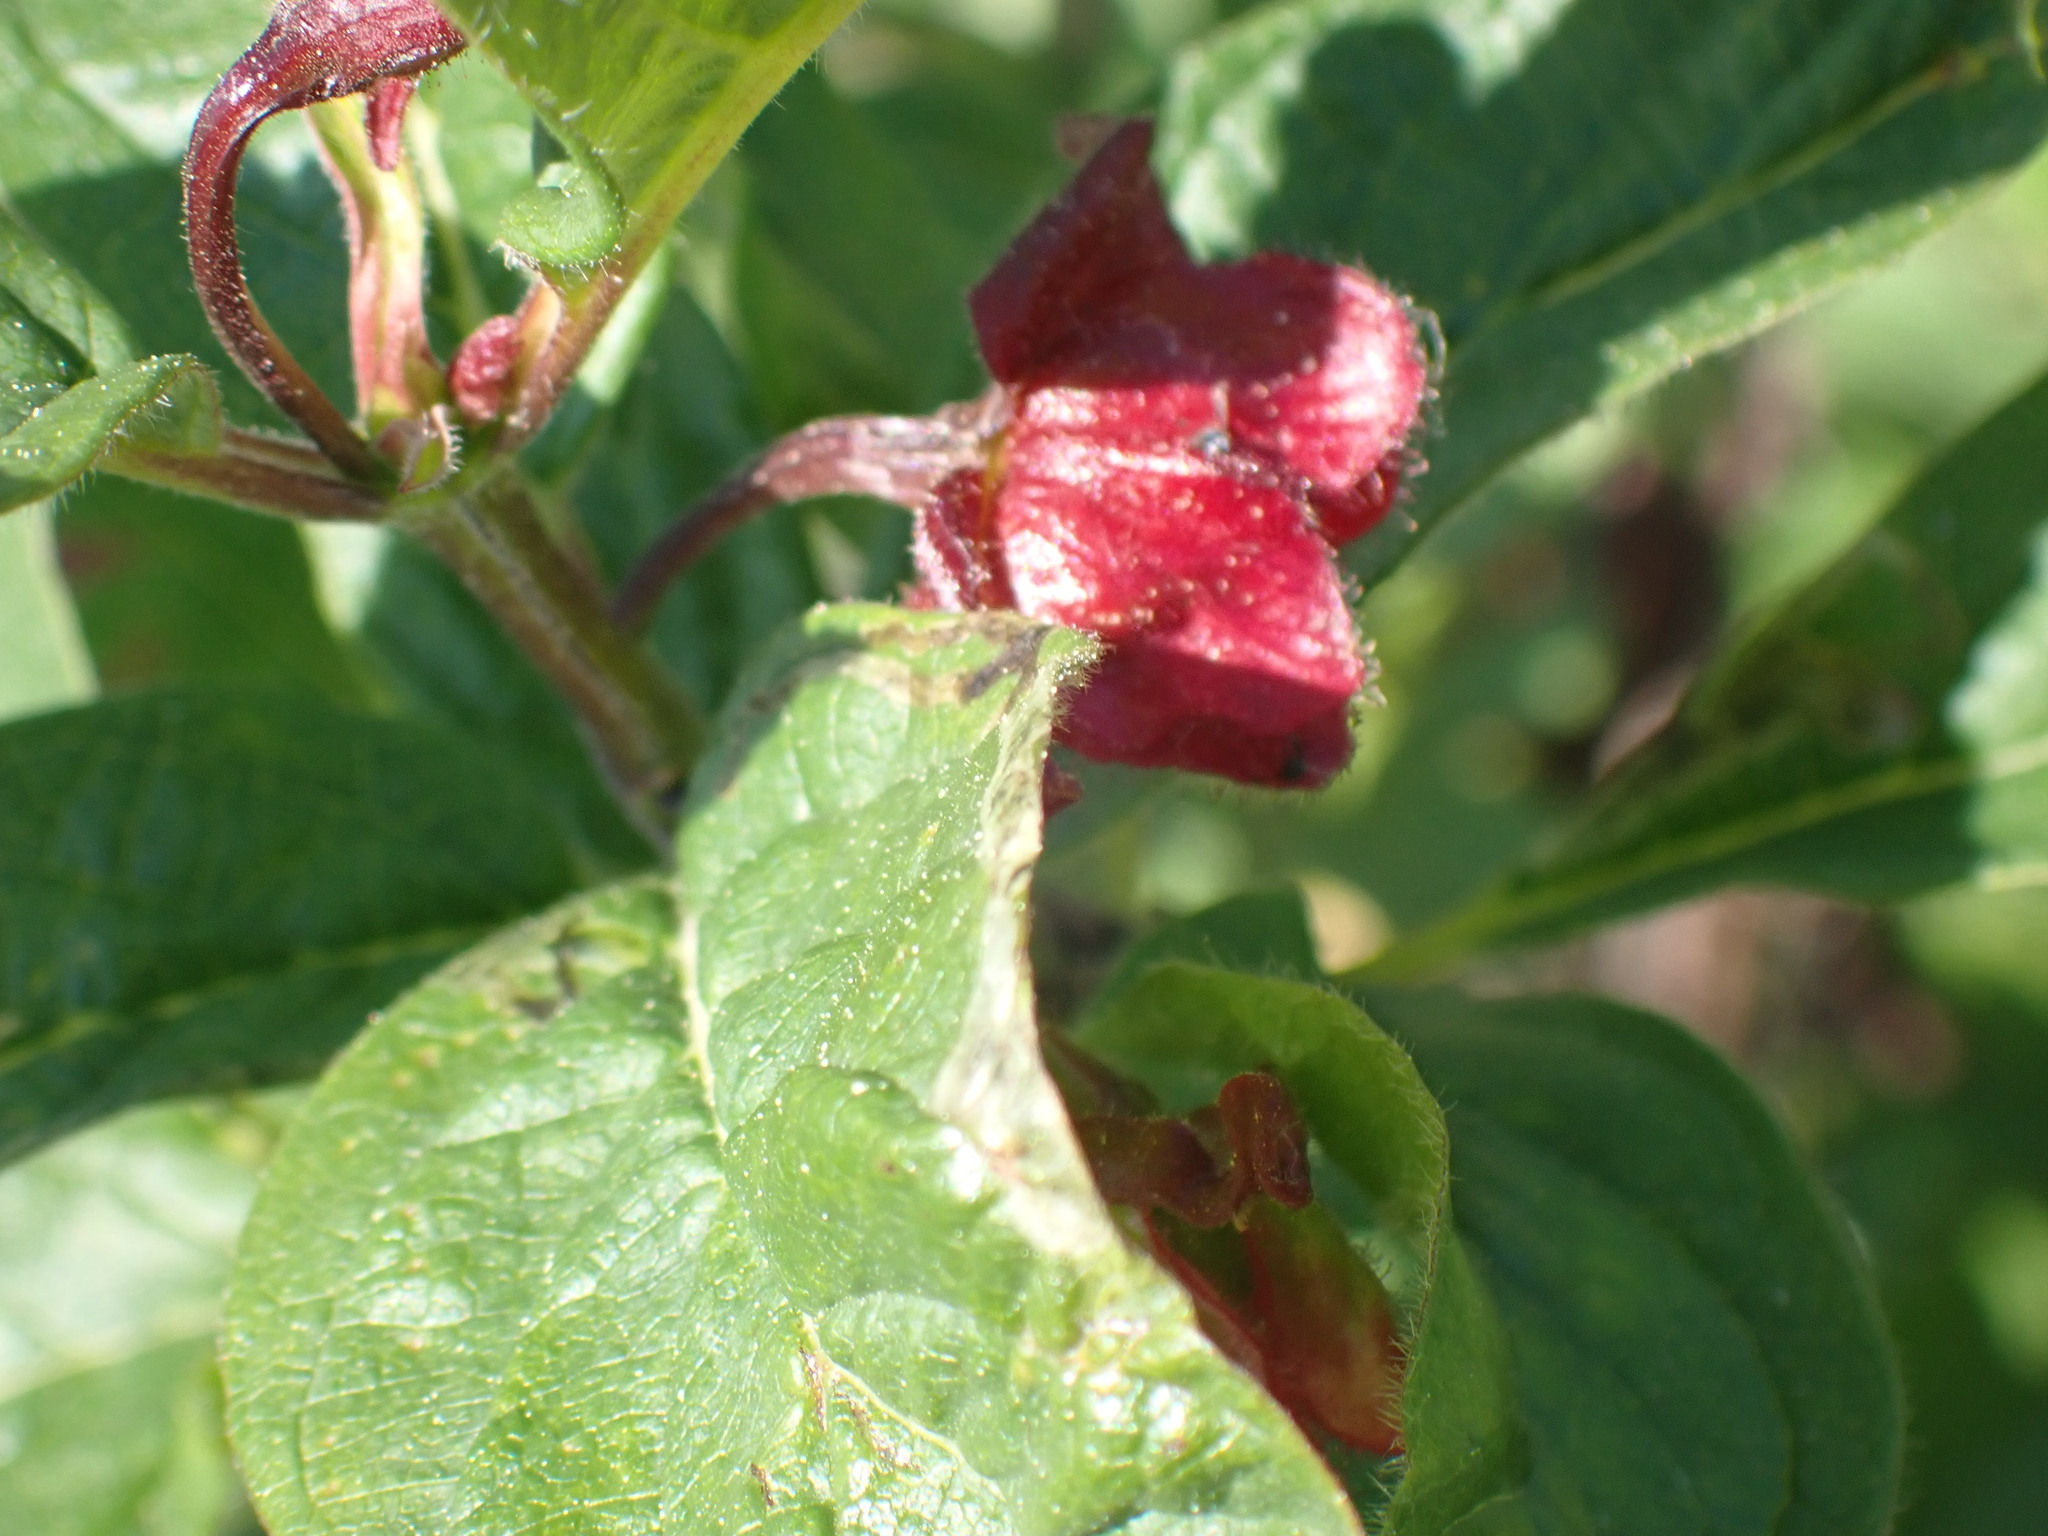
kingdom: Plantae
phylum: Tracheophyta
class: Magnoliopsida
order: Dipsacales
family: Caprifoliaceae
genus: Lonicera
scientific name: Lonicera involucrata
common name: Californian honeysuckle
